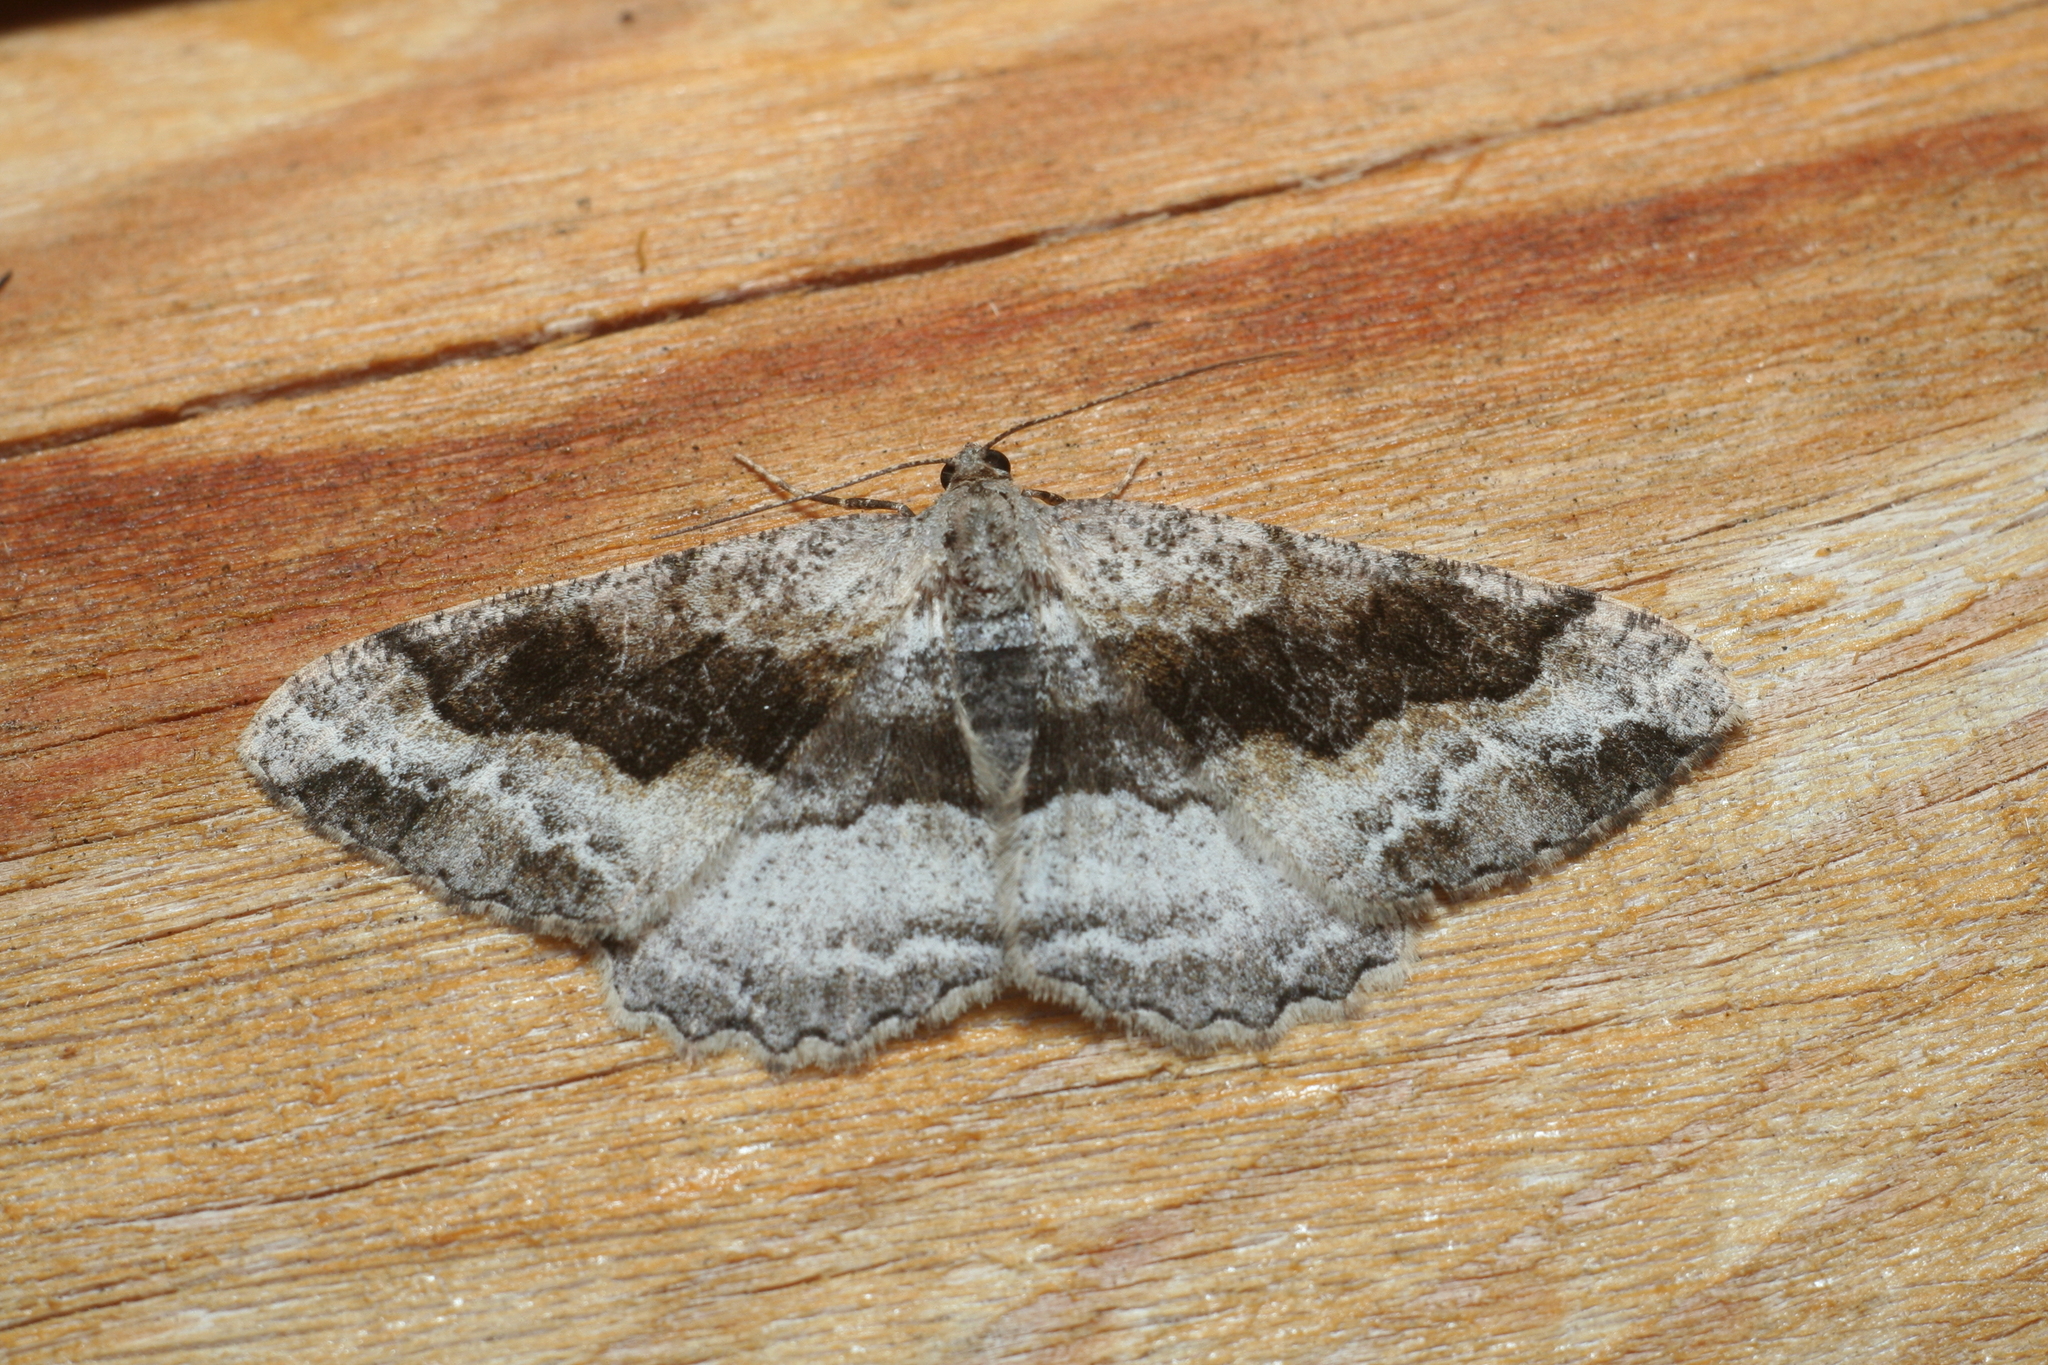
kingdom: Animalia
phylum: Arthropoda
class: Insecta
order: Lepidoptera
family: Geometridae
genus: Alcis
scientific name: Alcis deversata
